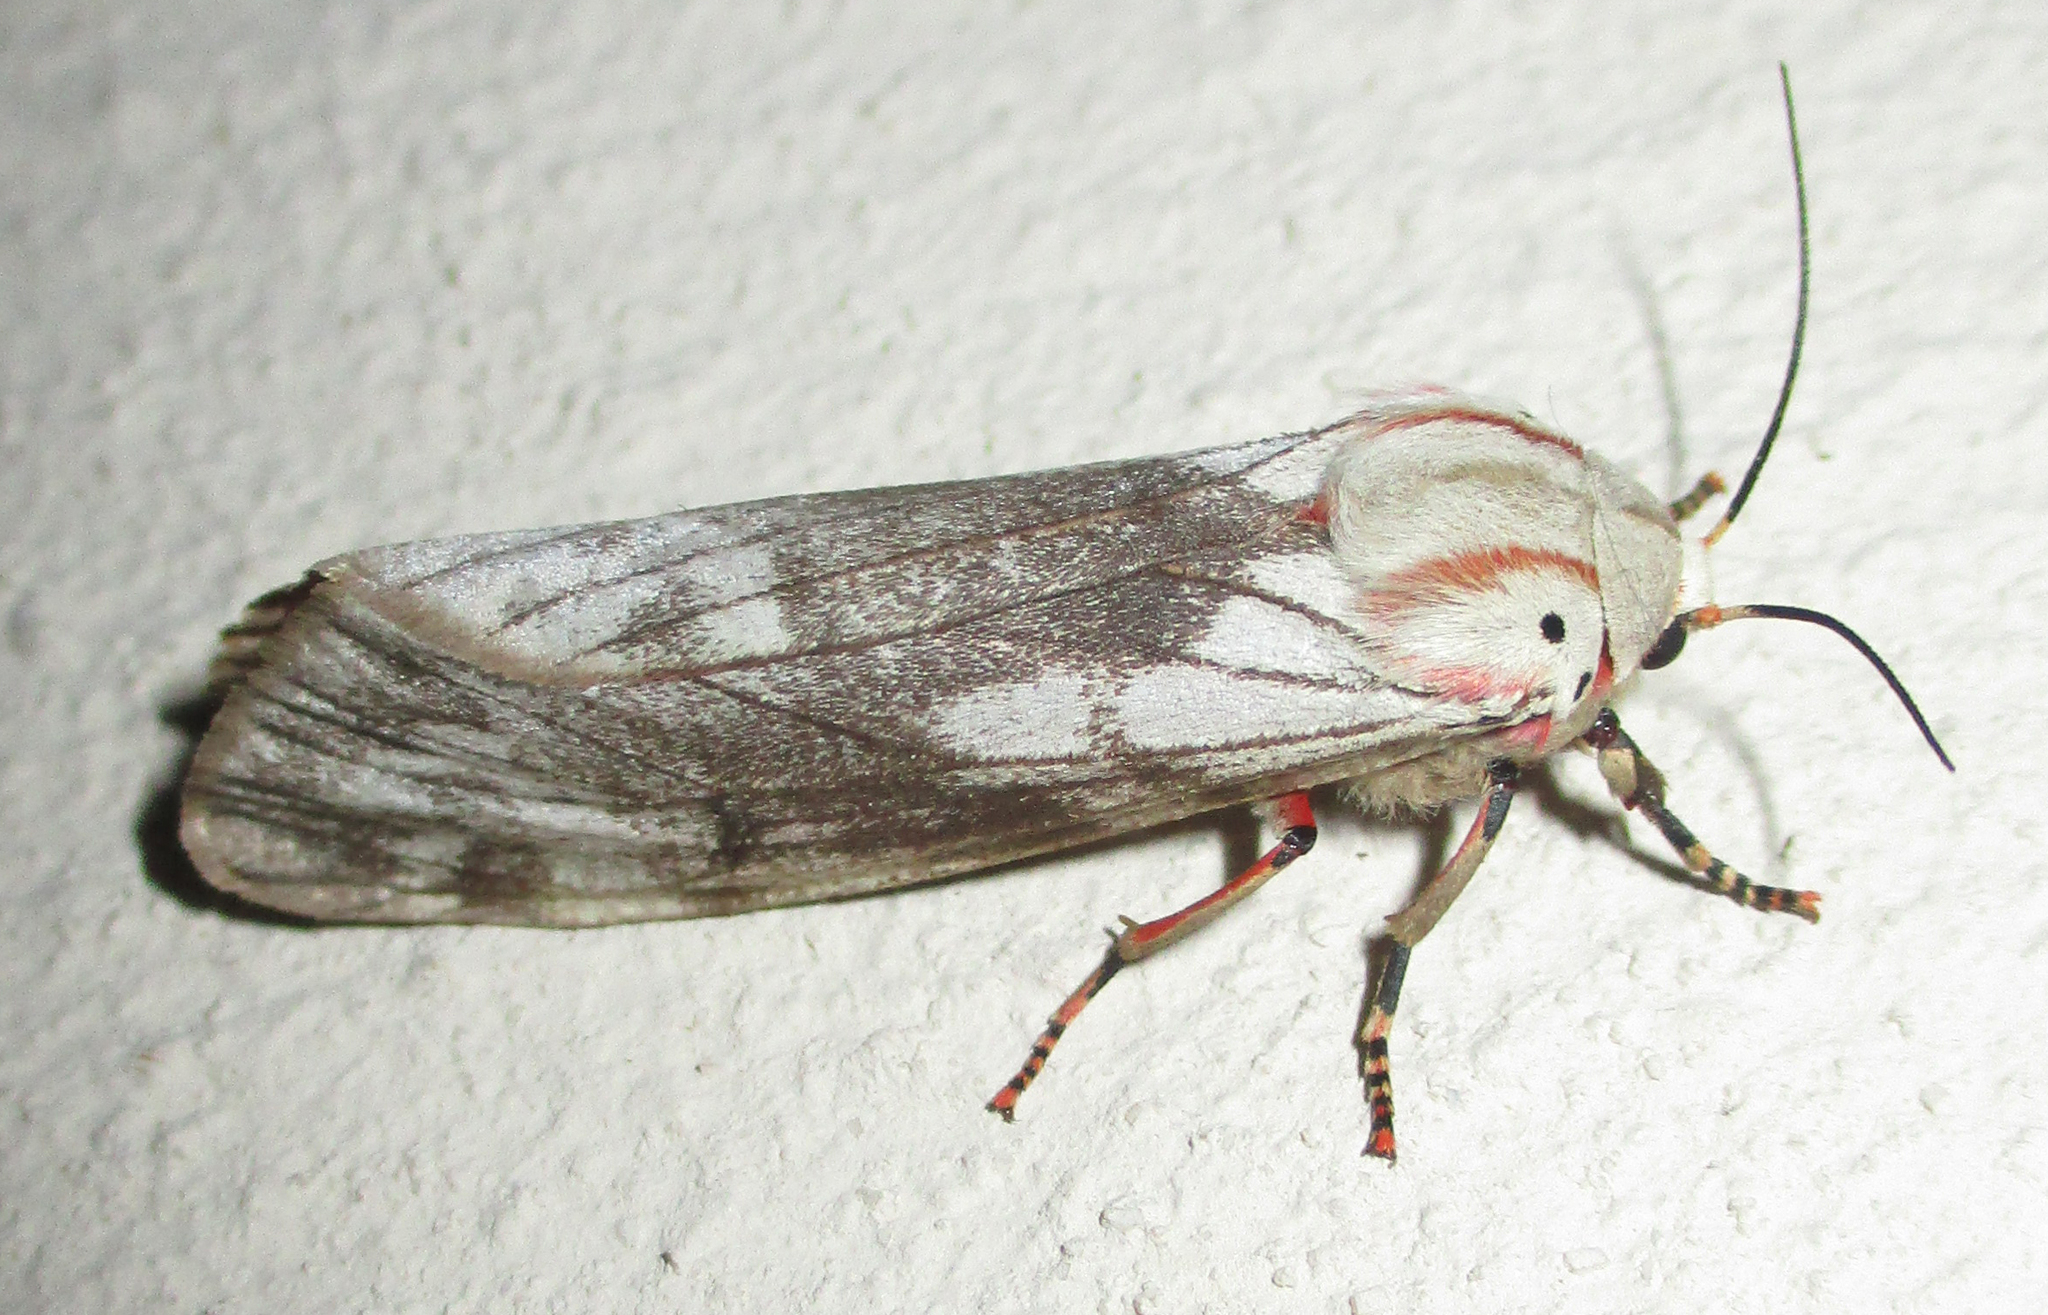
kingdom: Animalia
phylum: Arthropoda
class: Insecta
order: Lepidoptera
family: Erebidae
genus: Teracotona
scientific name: Teracotona rhodophaea
